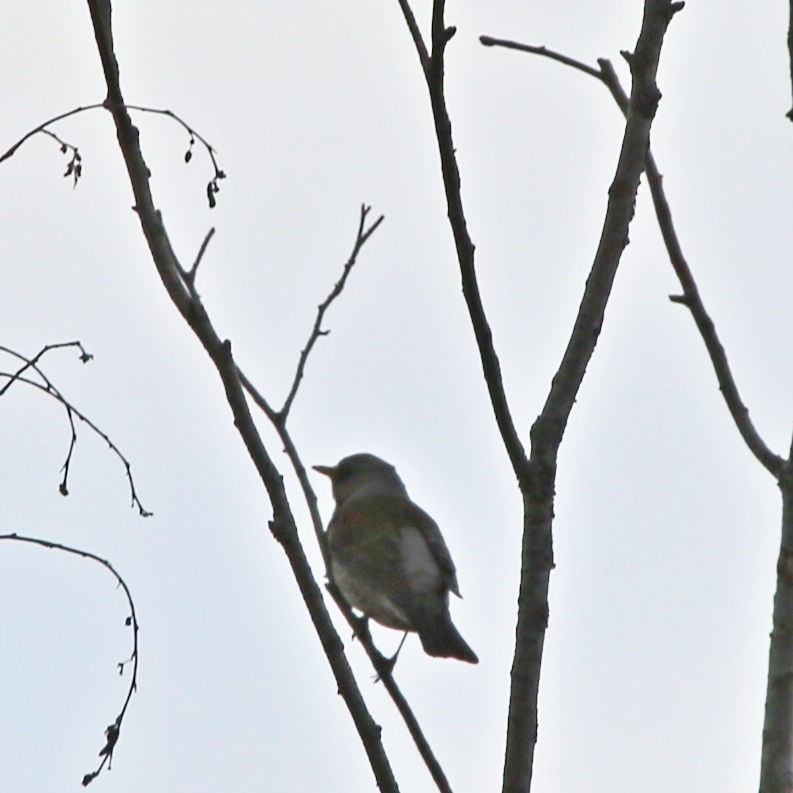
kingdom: Animalia
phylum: Chordata
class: Aves
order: Passeriformes
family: Turdidae
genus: Turdus
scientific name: Turdus pilaris
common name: Fieldfare
